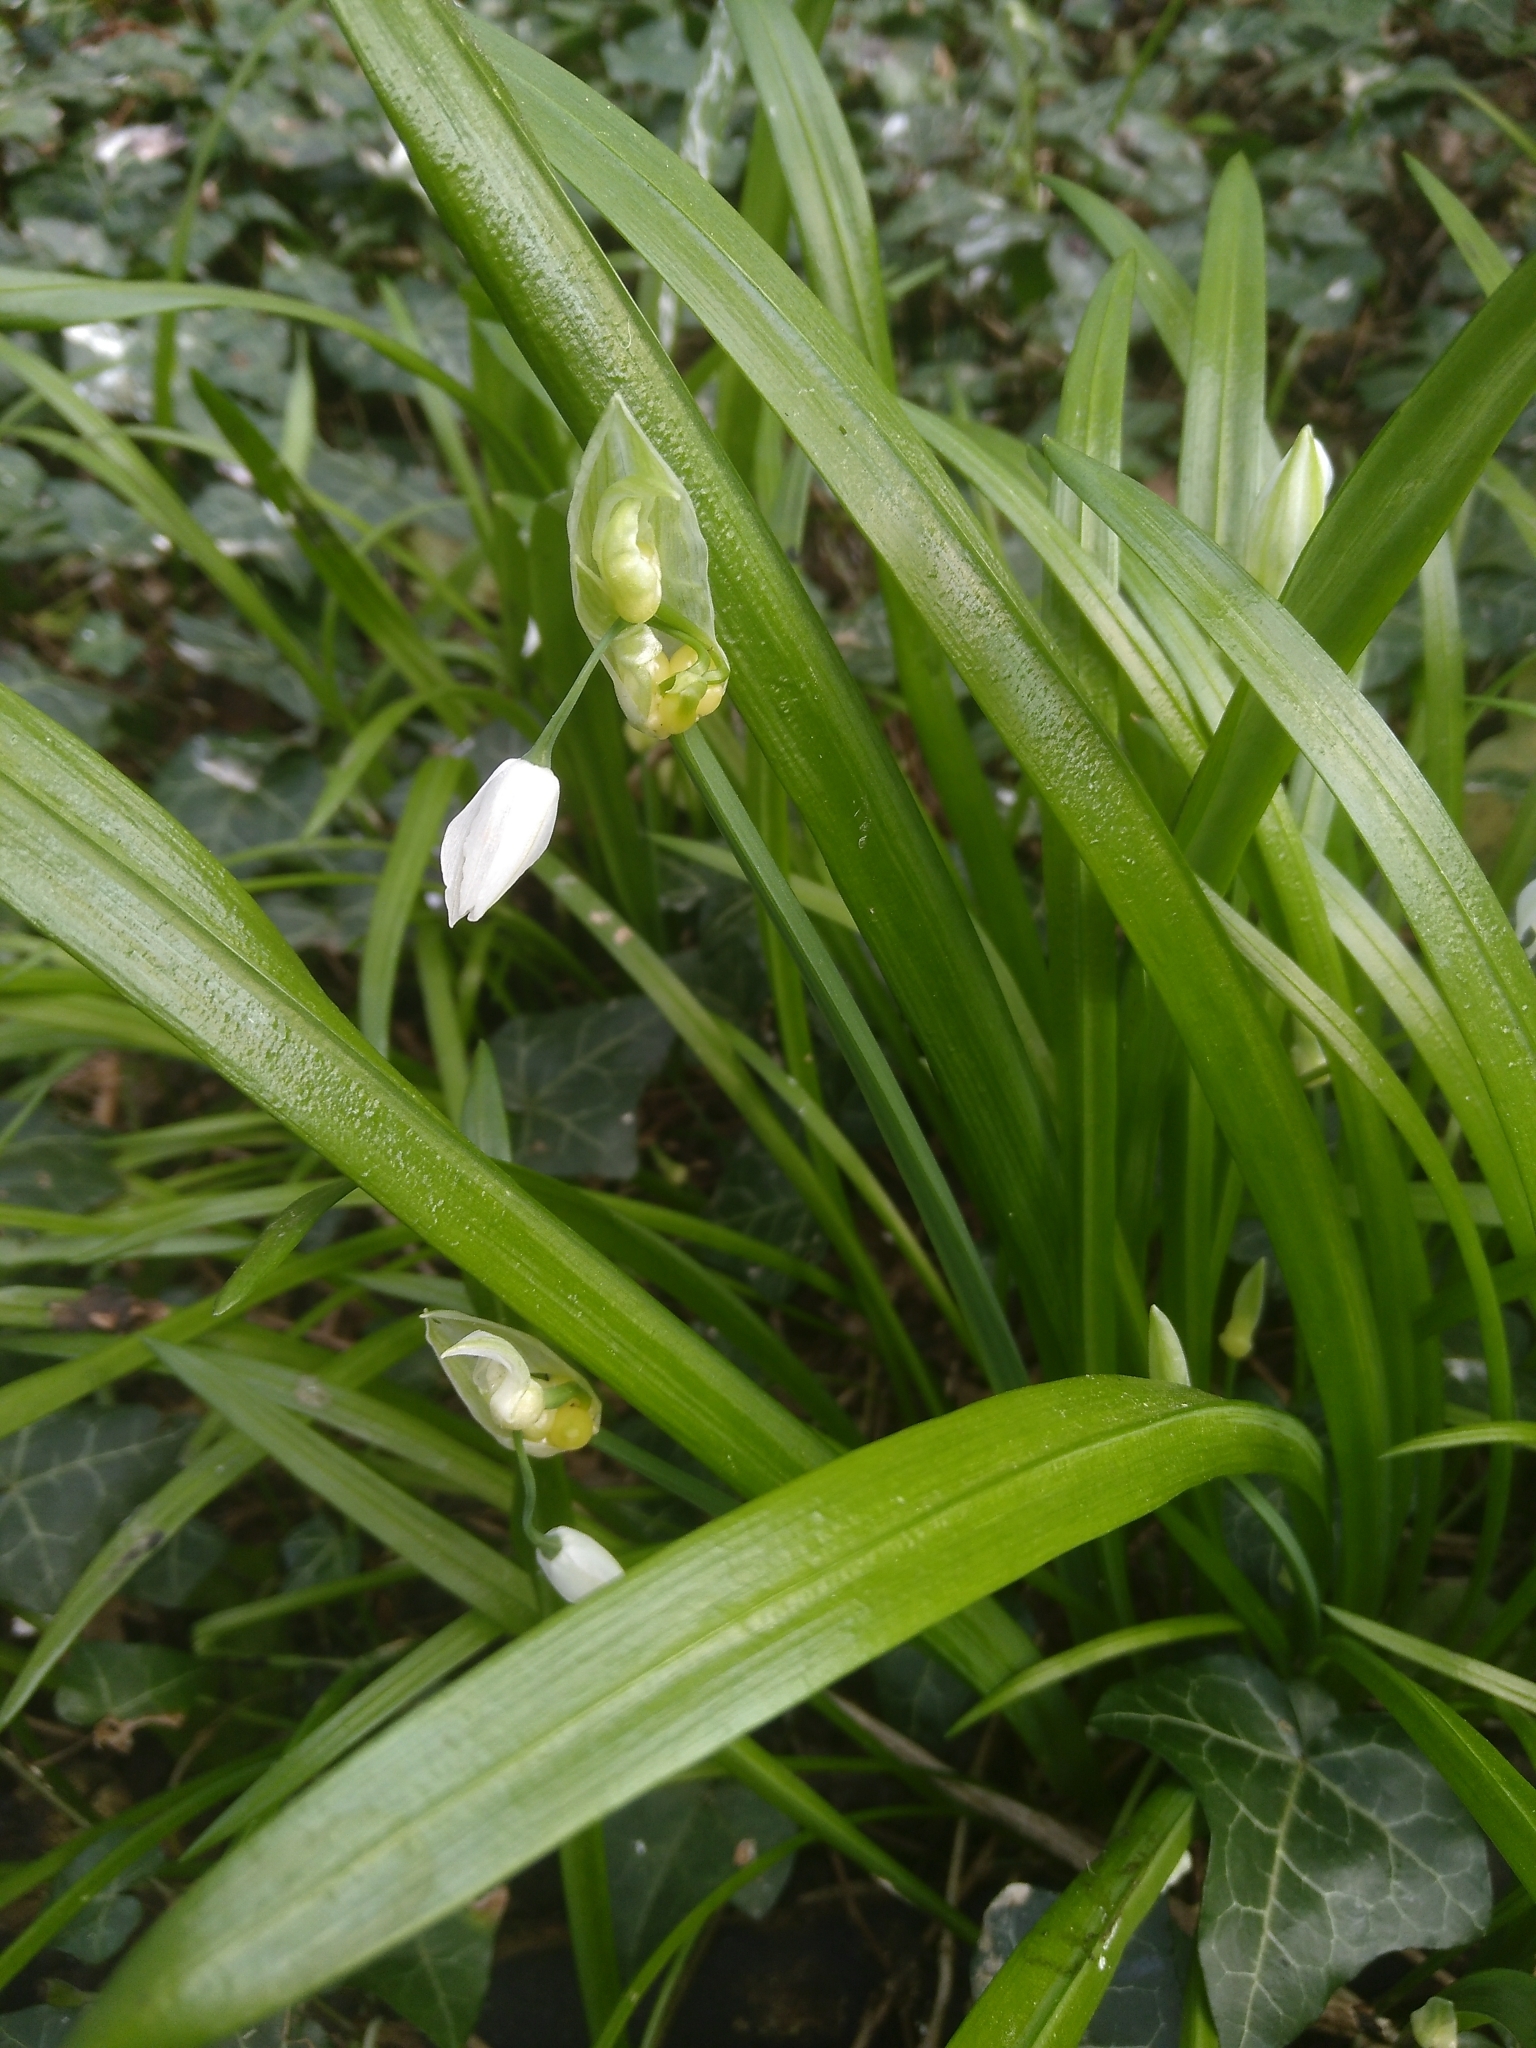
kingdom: Plantae
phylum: Tracheophyta
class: Liliopsida
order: Asparagales
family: Amaryllidaceae
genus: Allium
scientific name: Allium paradoxum
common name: Few-flowered garlic
